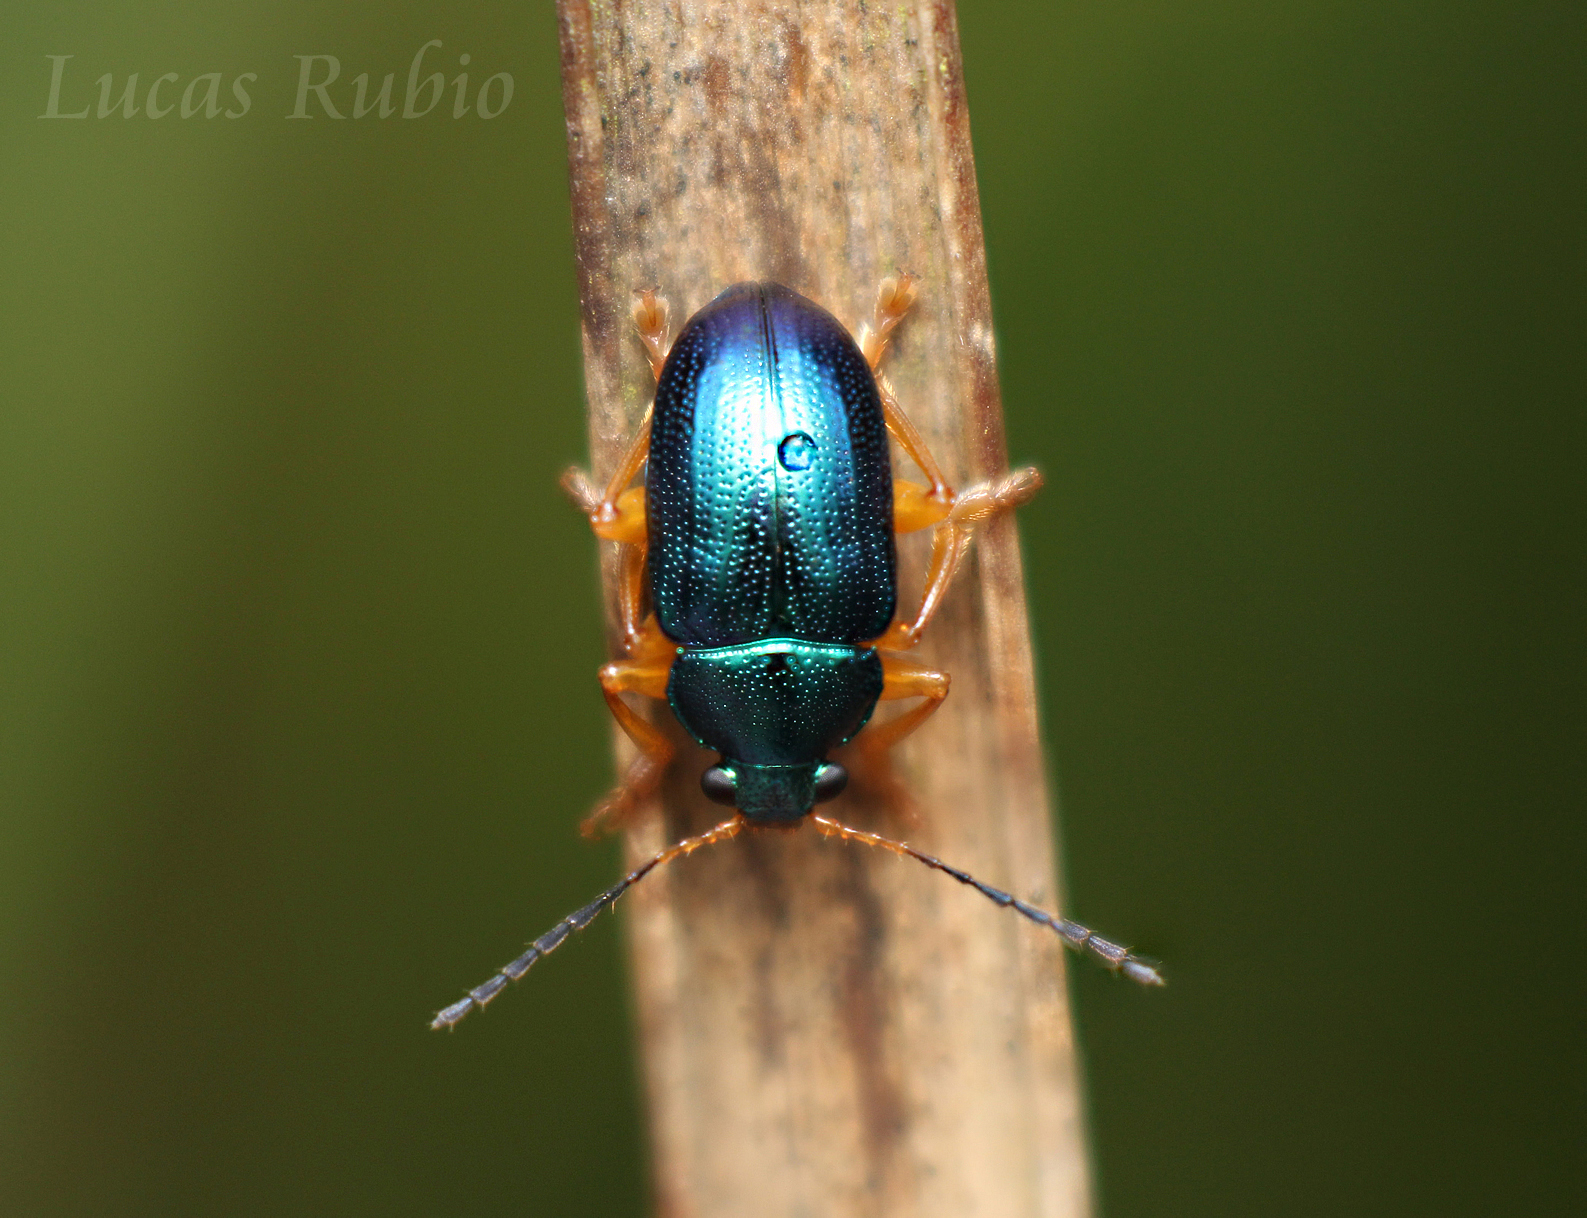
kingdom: Animalia
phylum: Arthropoda
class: Insecta
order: Coleoptera
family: Chrysomelidae
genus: Nodocolaspis
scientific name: Nodocolaspis
